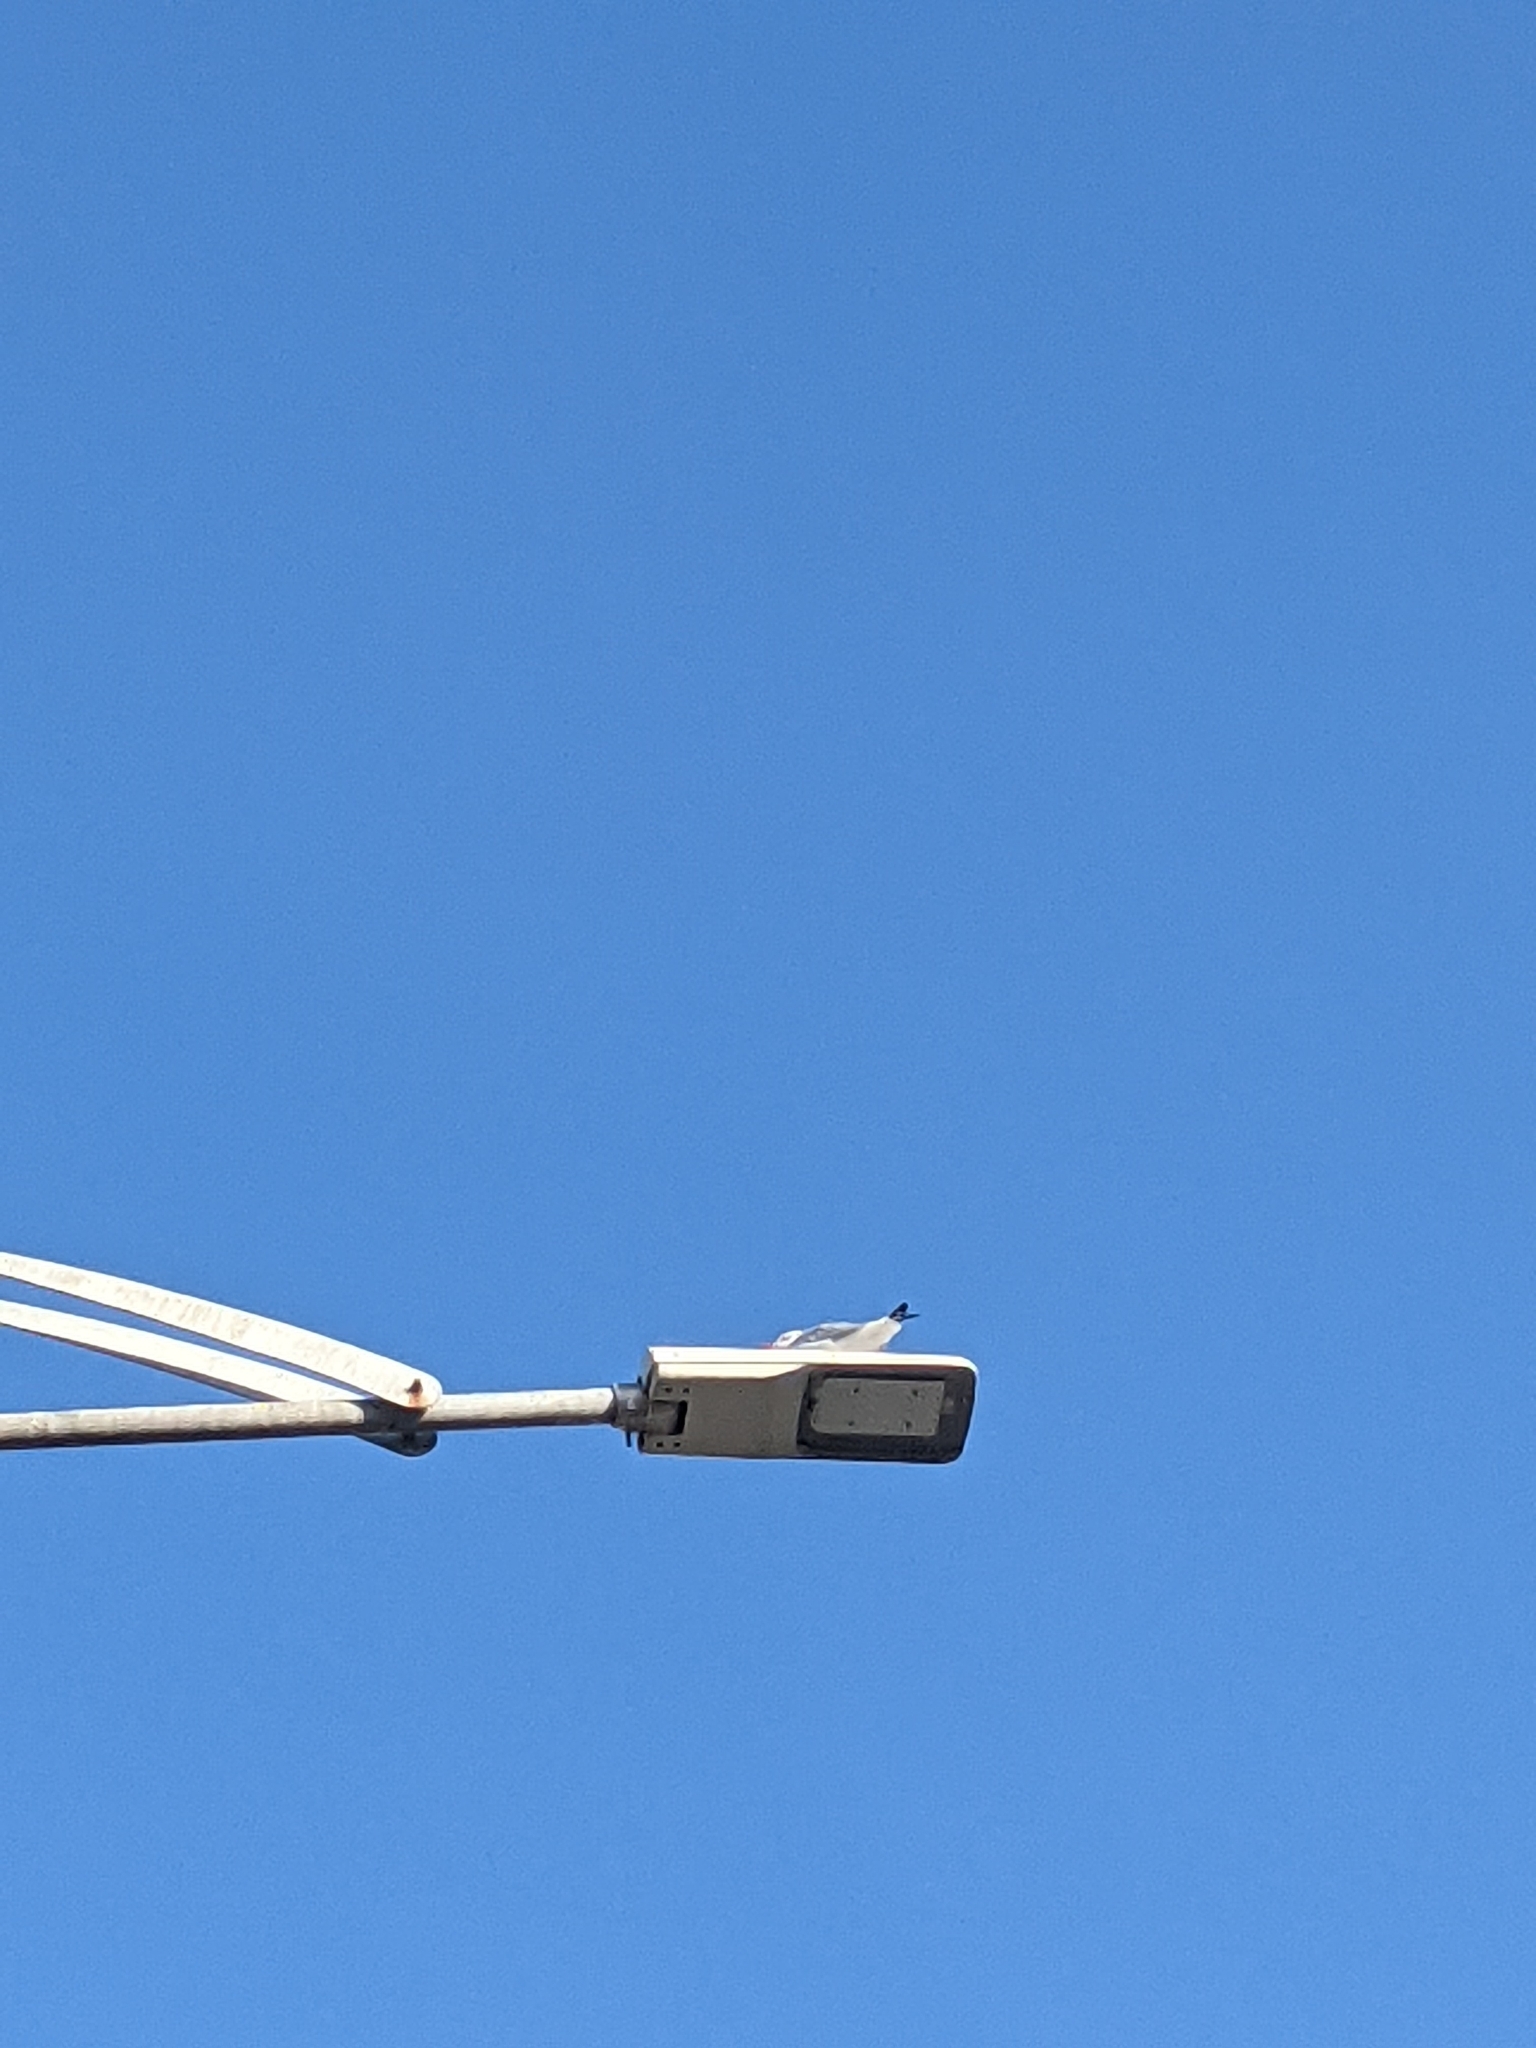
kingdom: Animalia
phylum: Chordata
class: Aves
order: Charadriiformes
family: Laridae
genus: Chroicocephalus
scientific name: Chroicocephalus ridibundus
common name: Black-headed gull
